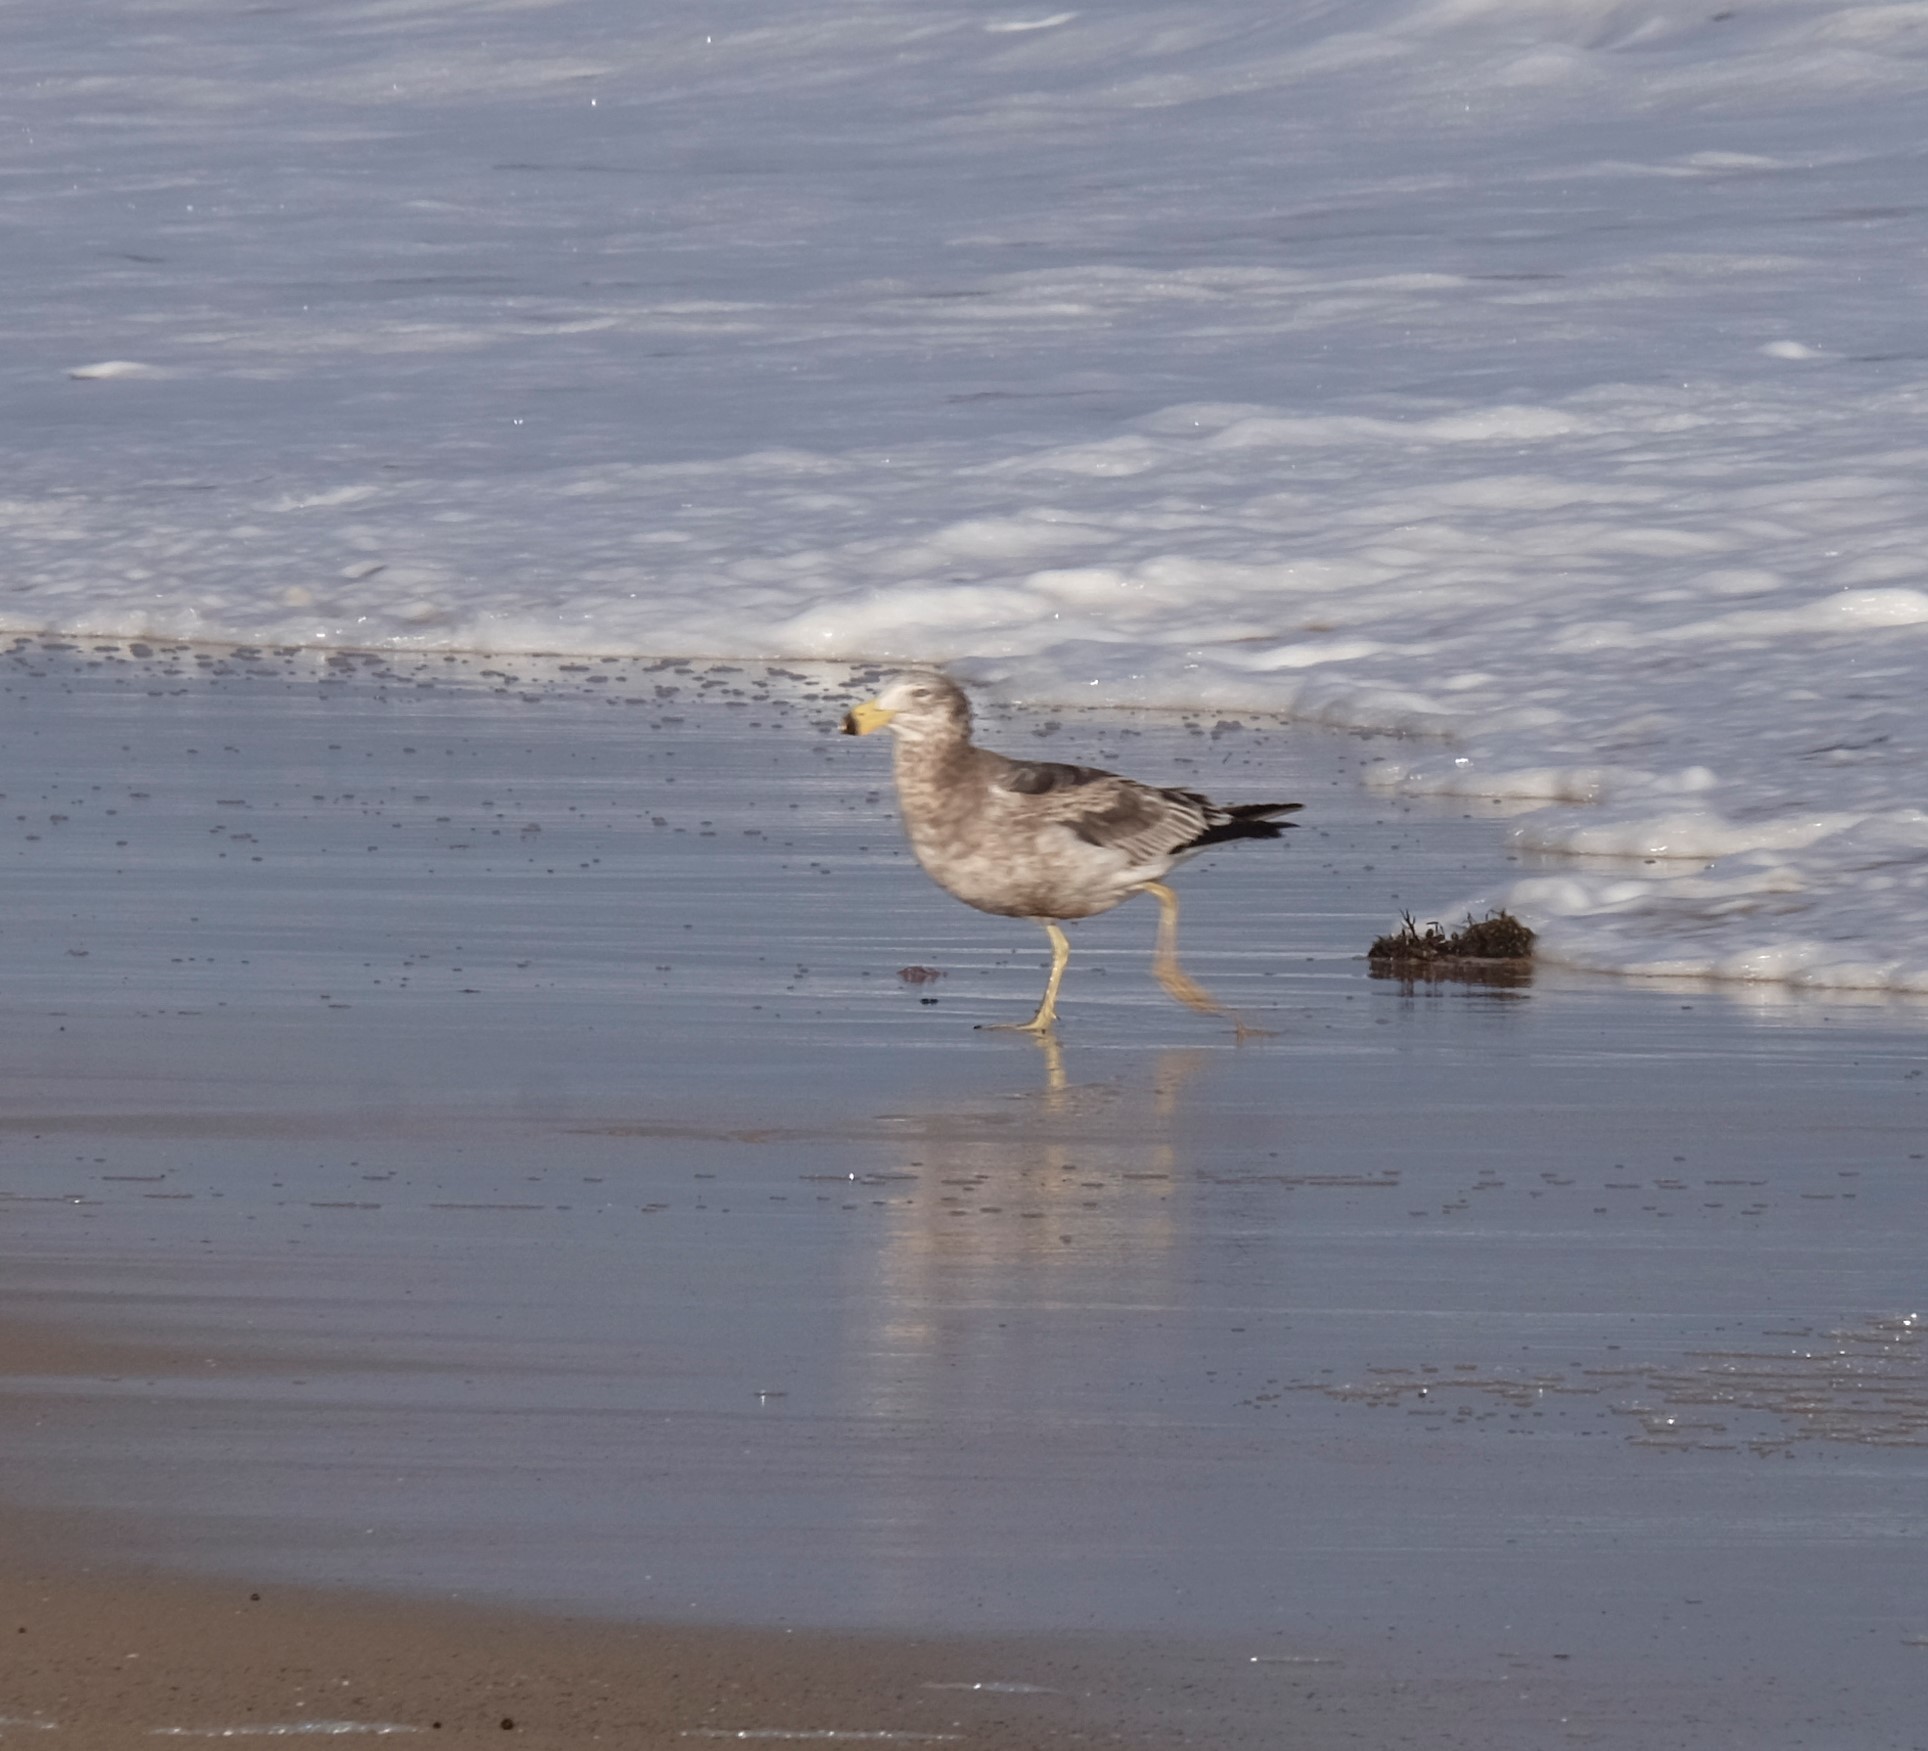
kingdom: Animalia
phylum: Chordata
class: Aves
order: Charadriiformes
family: Laridae
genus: Larus
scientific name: Larus pacificus
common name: Pacific gull
